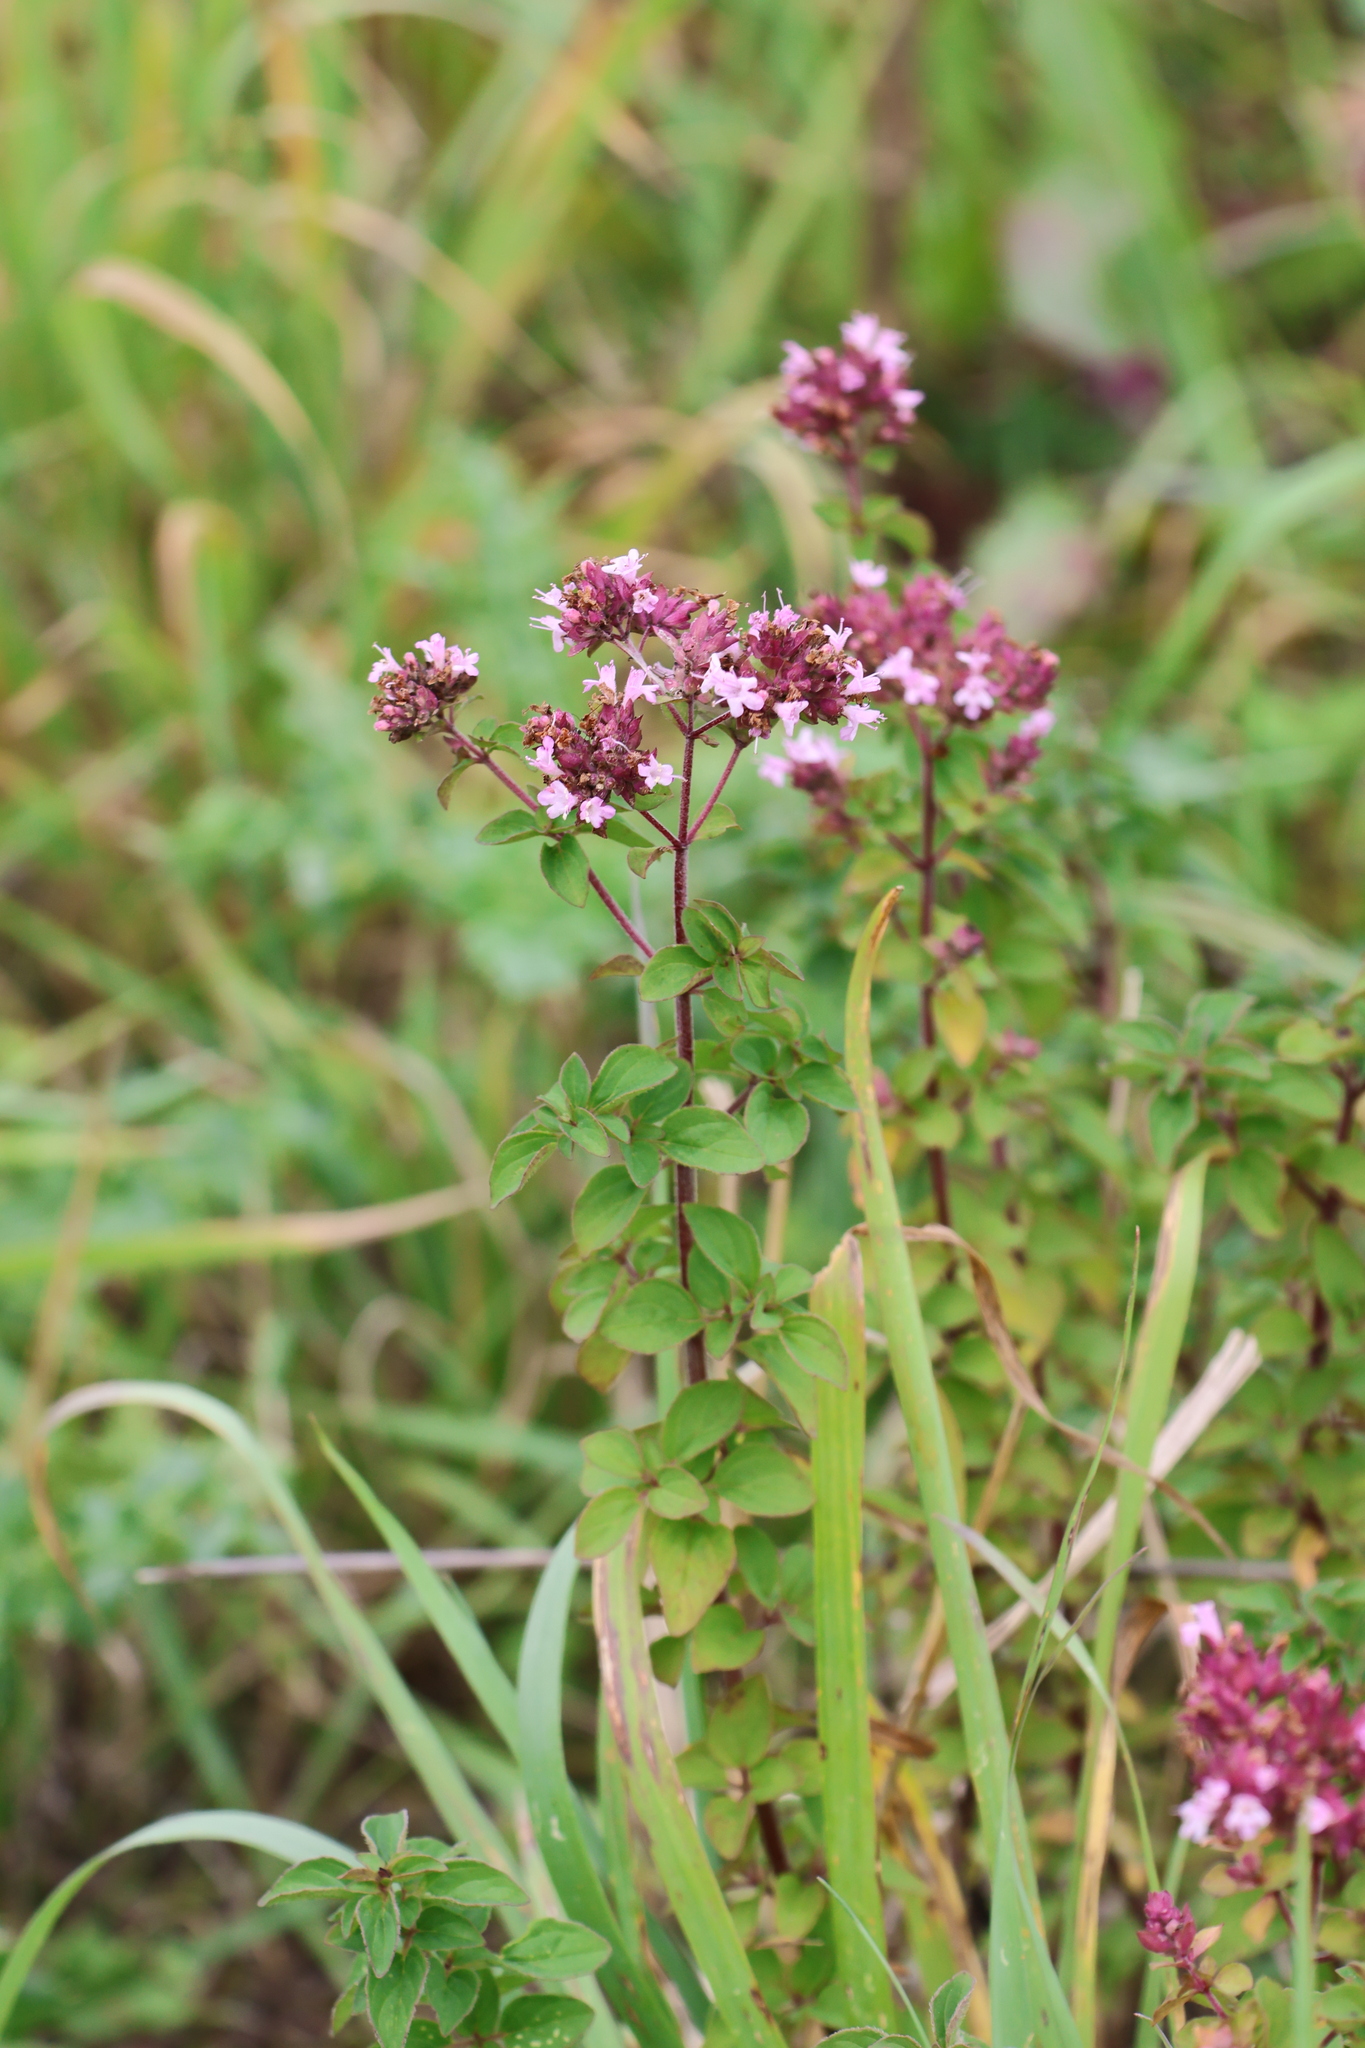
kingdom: Plantae
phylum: Tracheophyta
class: Magnoliopsida
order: Lamiales
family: Lamiaceae
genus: Origanum
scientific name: Origanum vulgare
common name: Wild marjoram
